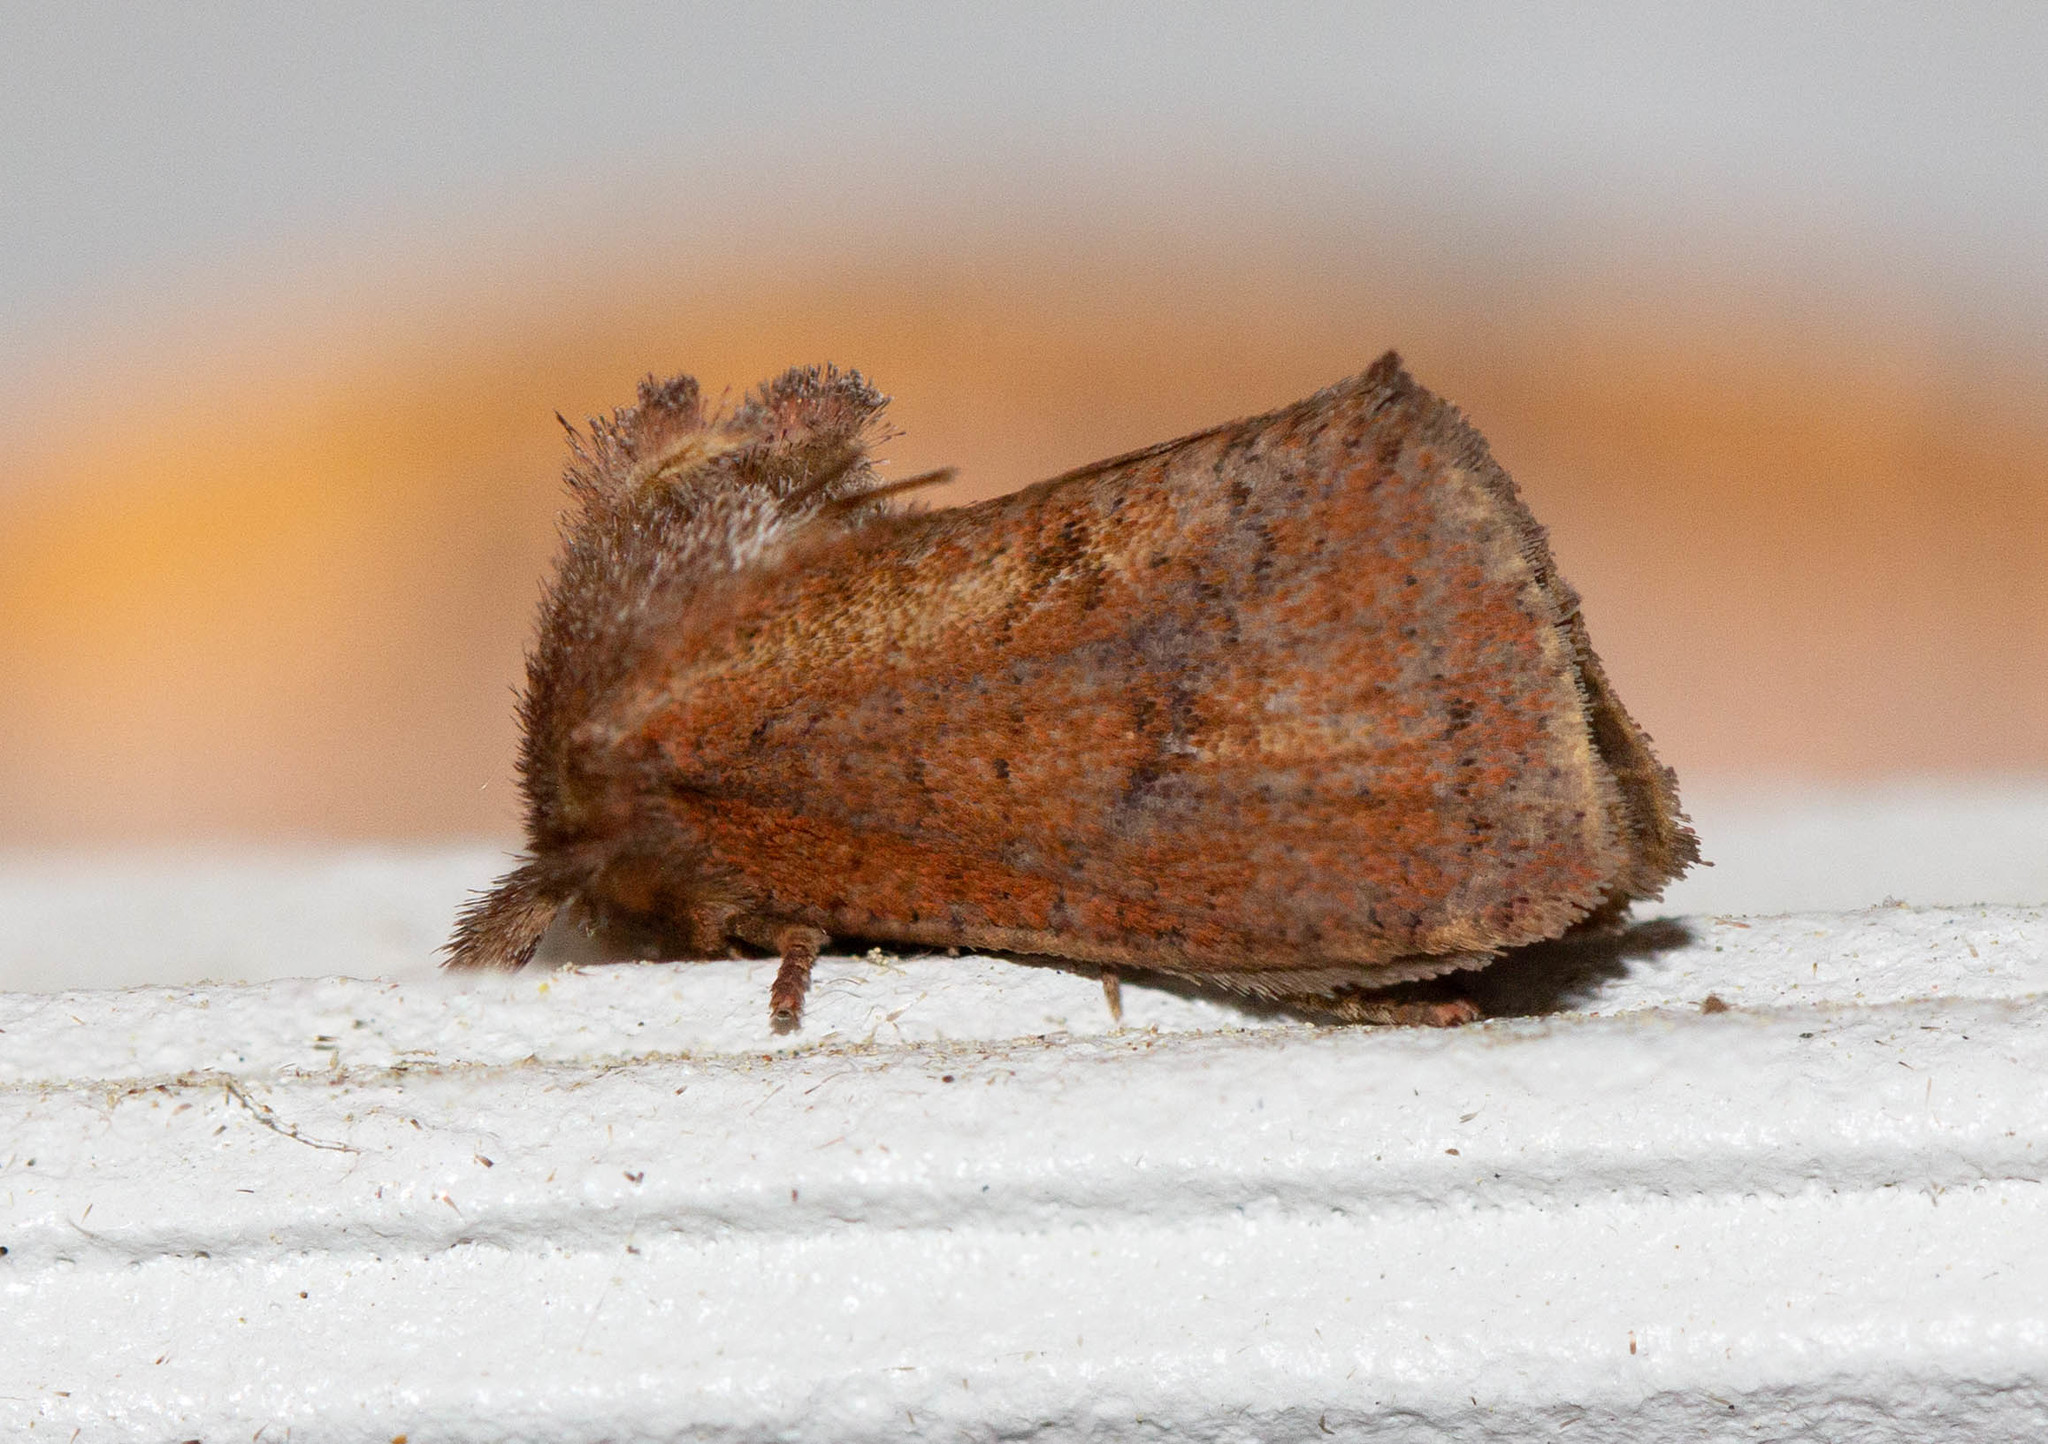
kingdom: Animalia
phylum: Arthropoda
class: Insecta
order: Lepidoptera
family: Tineidae
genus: Acrolophus
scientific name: Acrolophus plumifrontella
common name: Eastern grass tubeworm moth
